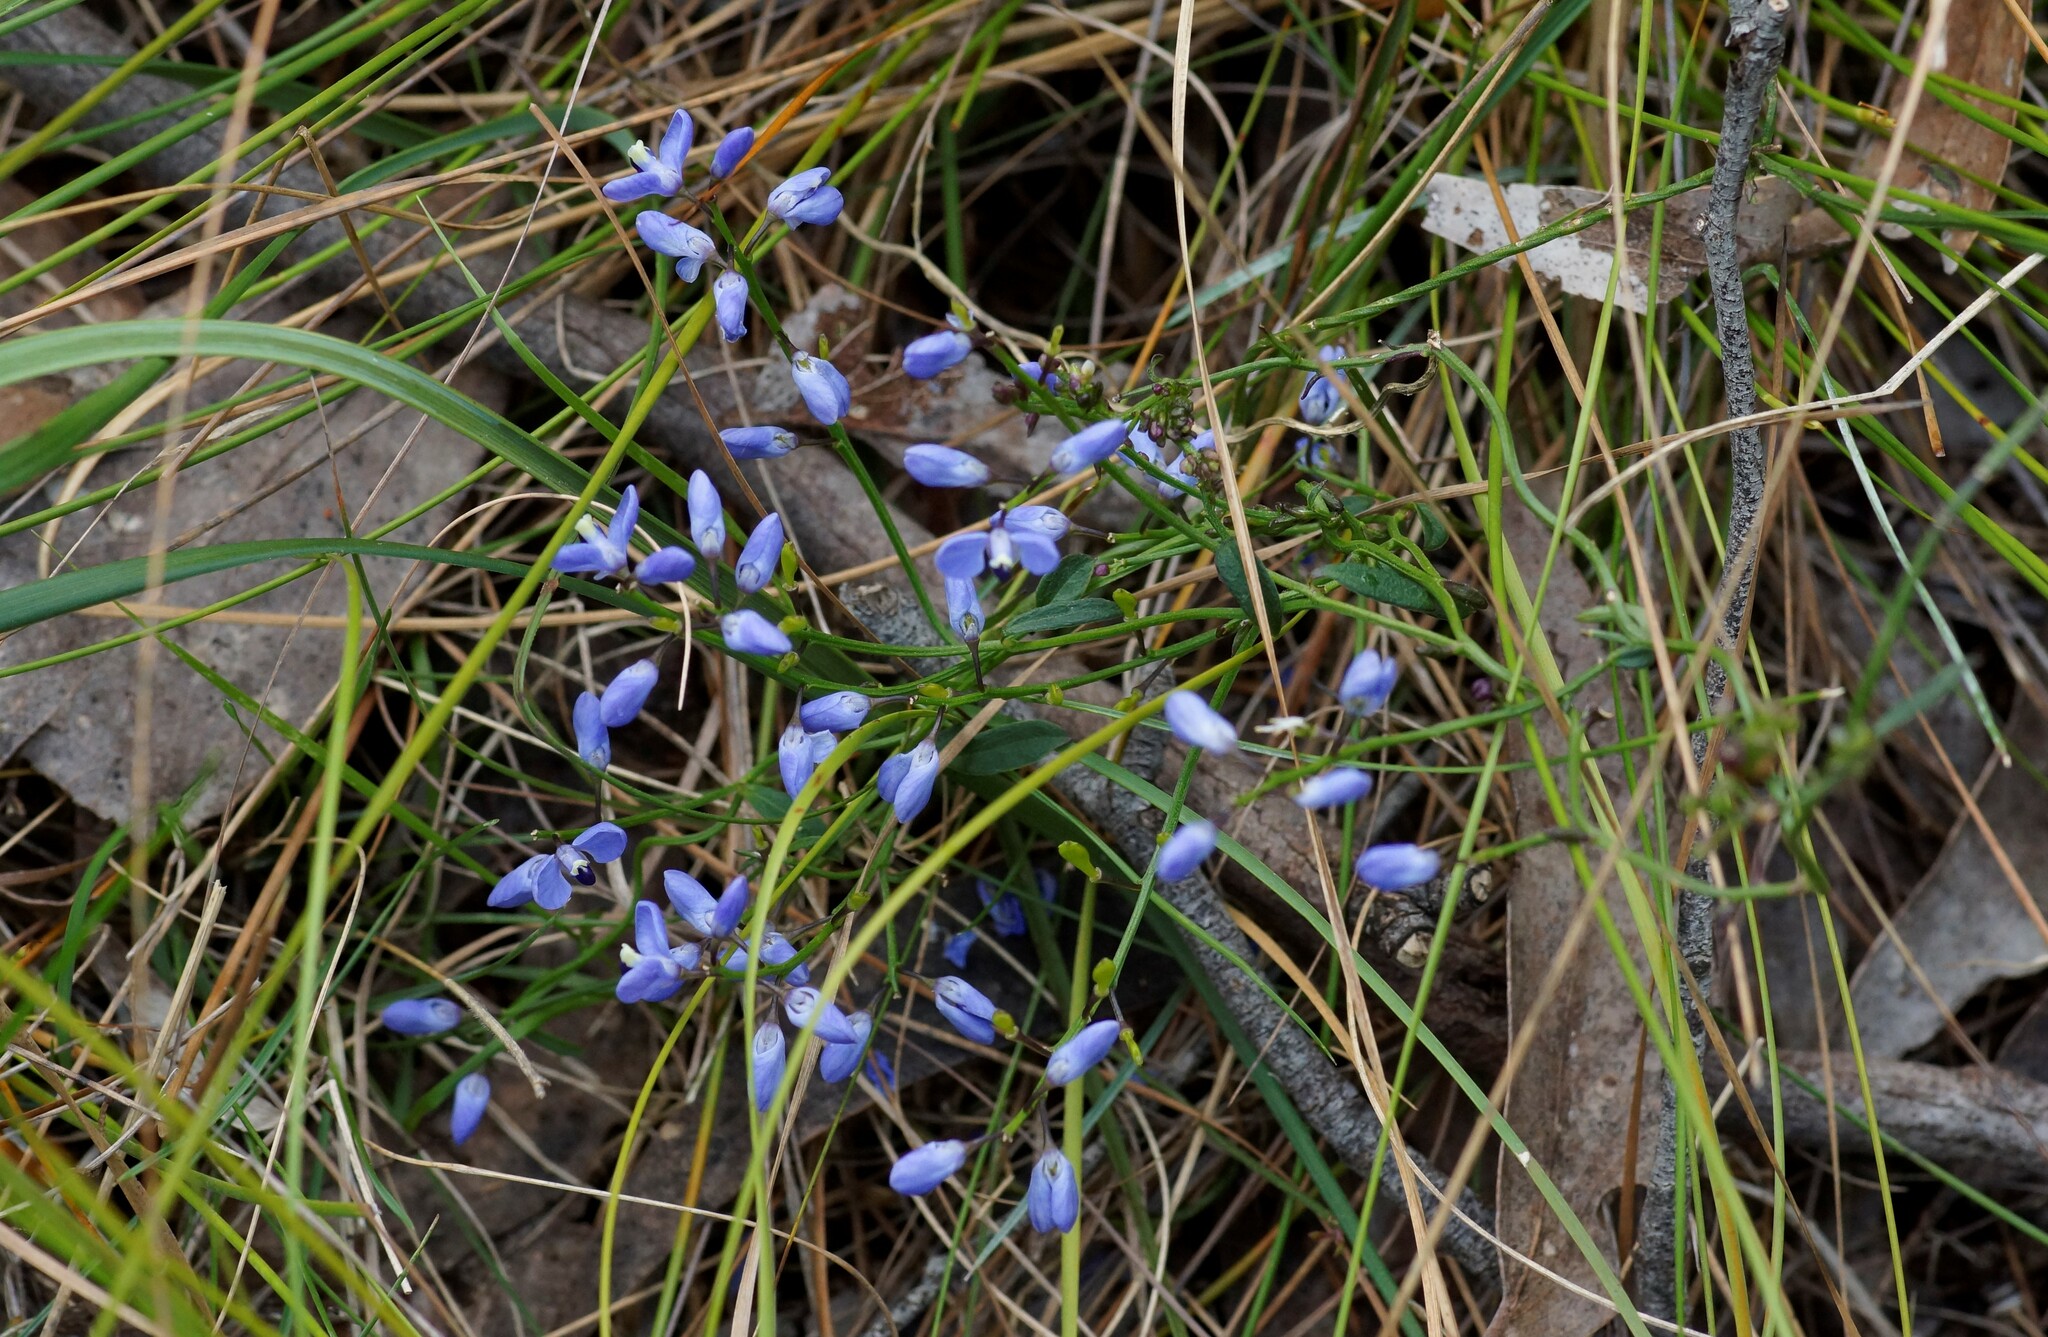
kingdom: Plantae
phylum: Tracheophyta
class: Magnoliopsida
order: Fabales
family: Polygalaceae
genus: Comesperma
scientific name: Comesperma volubile
